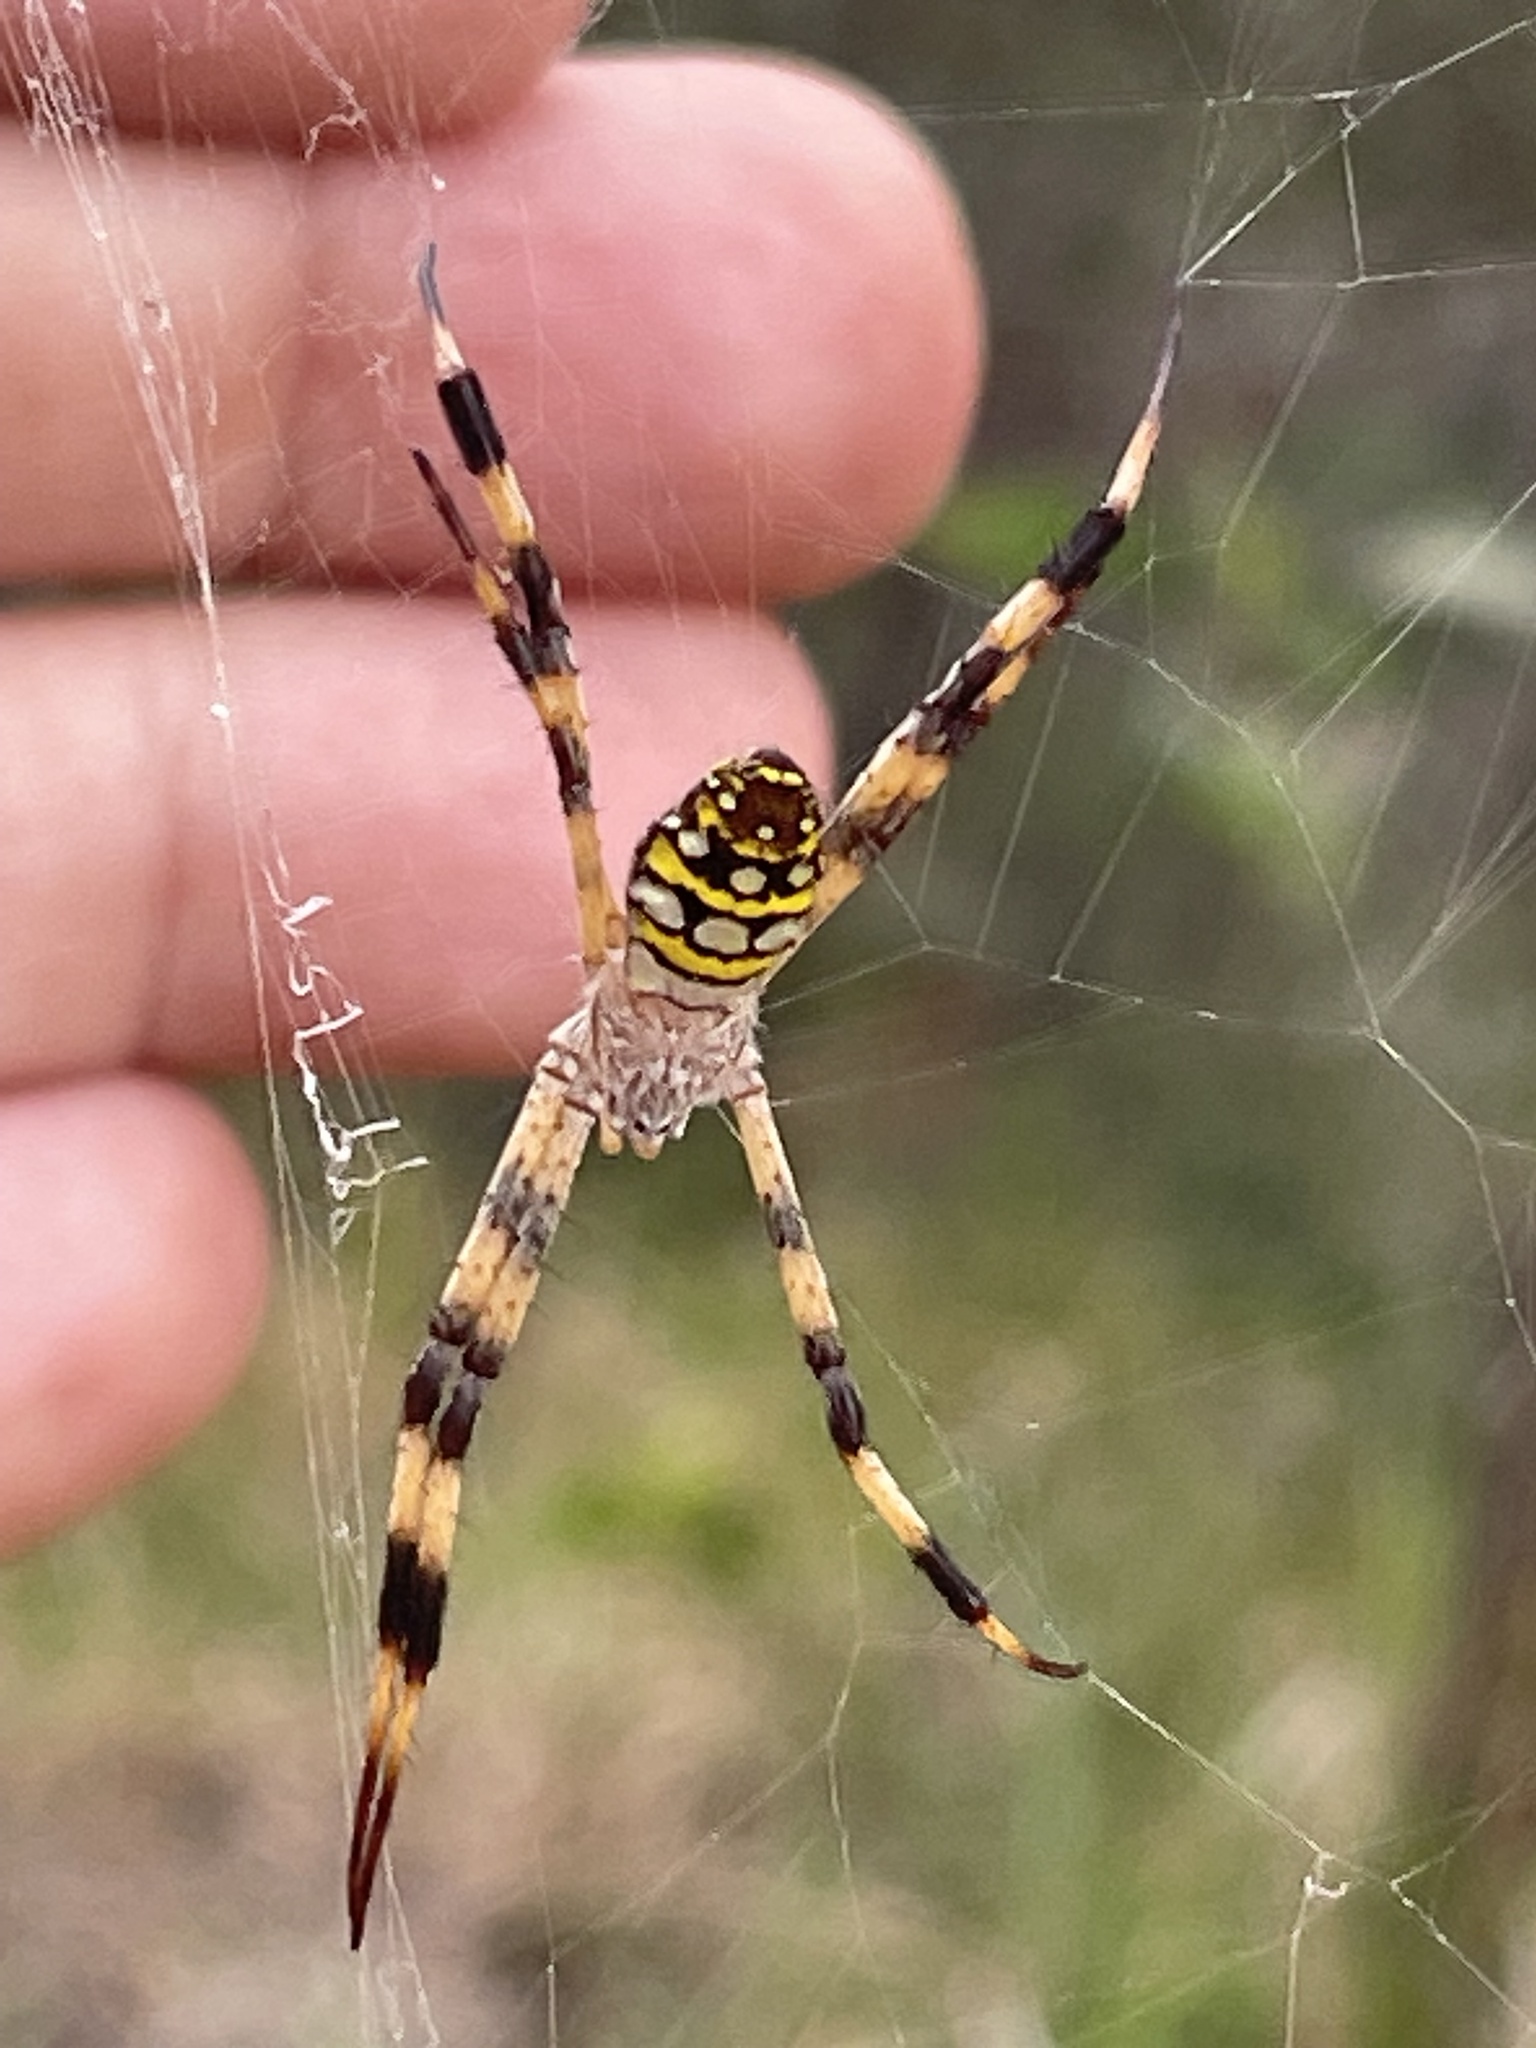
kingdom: Animalia
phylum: Arthropoda
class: Arachnida
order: Araneae
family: Araneidae
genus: Argiope
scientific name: Argiope picta
